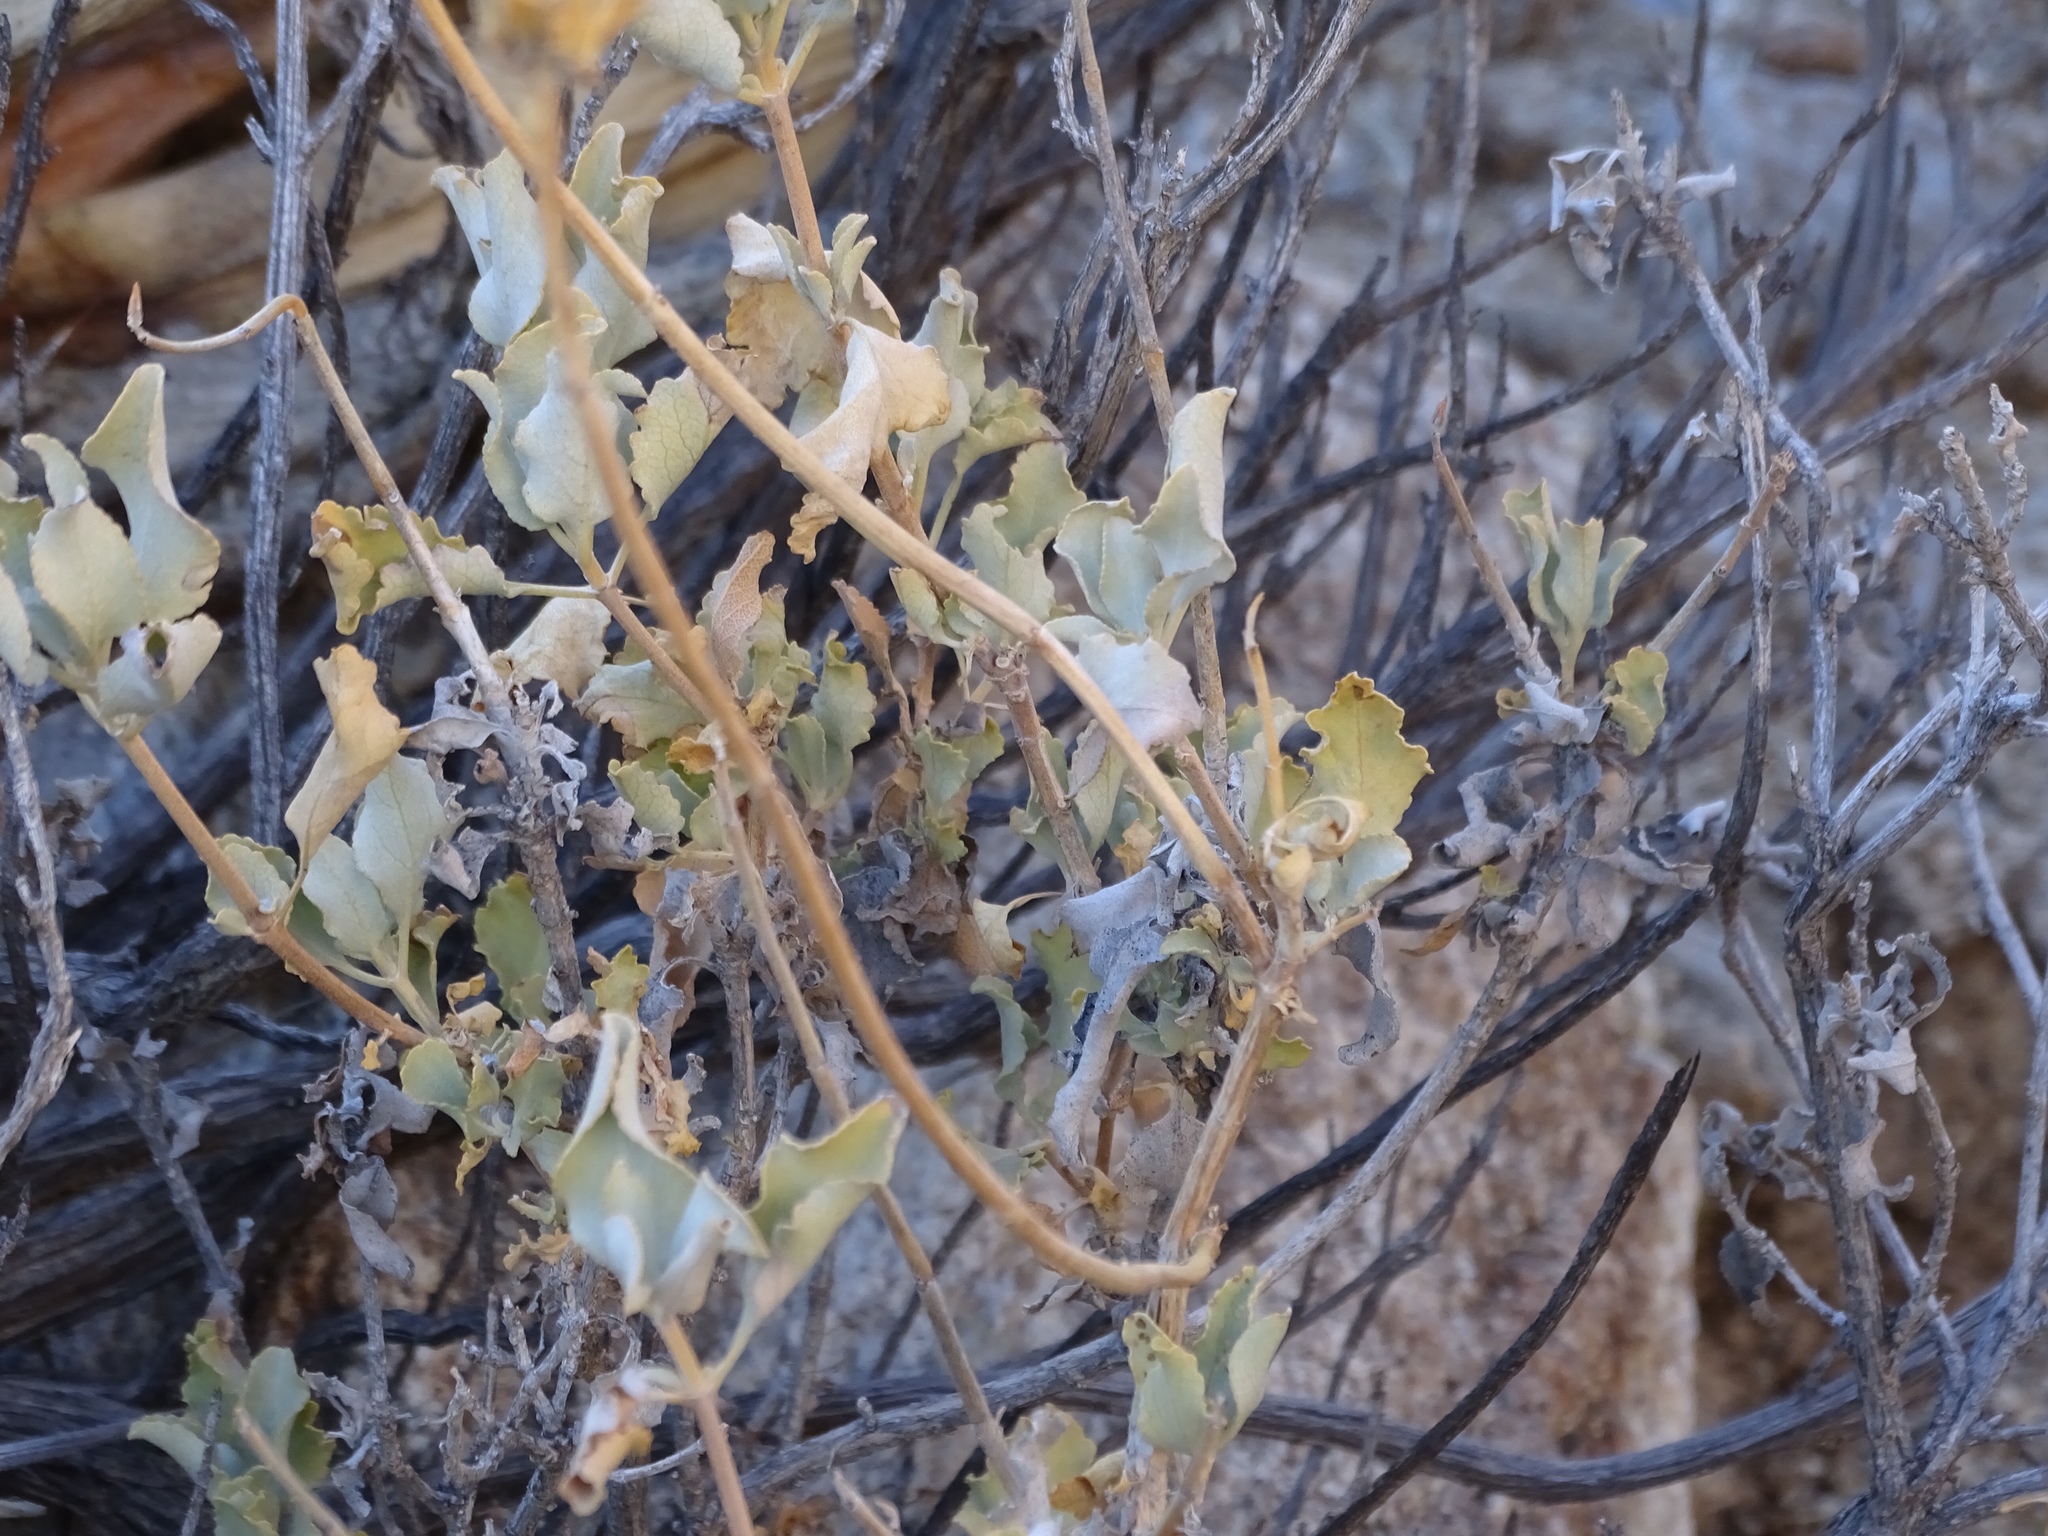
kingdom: Plantae
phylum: Tracheophyta
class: Magnoliopsida
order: Lamiales
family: Lamiaceae
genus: Salvia
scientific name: Salvia vaseyi
